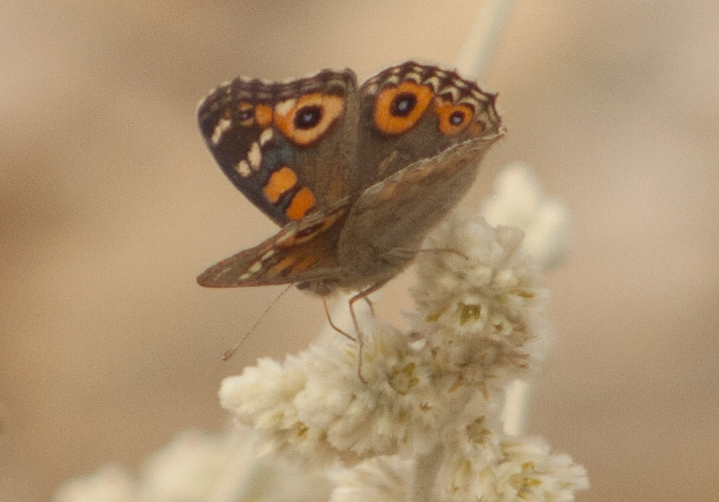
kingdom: Animalia
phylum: Arthropoda
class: Insecta
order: Lepidoptera
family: Nymphalidae
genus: Junonia
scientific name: Junonia villida
